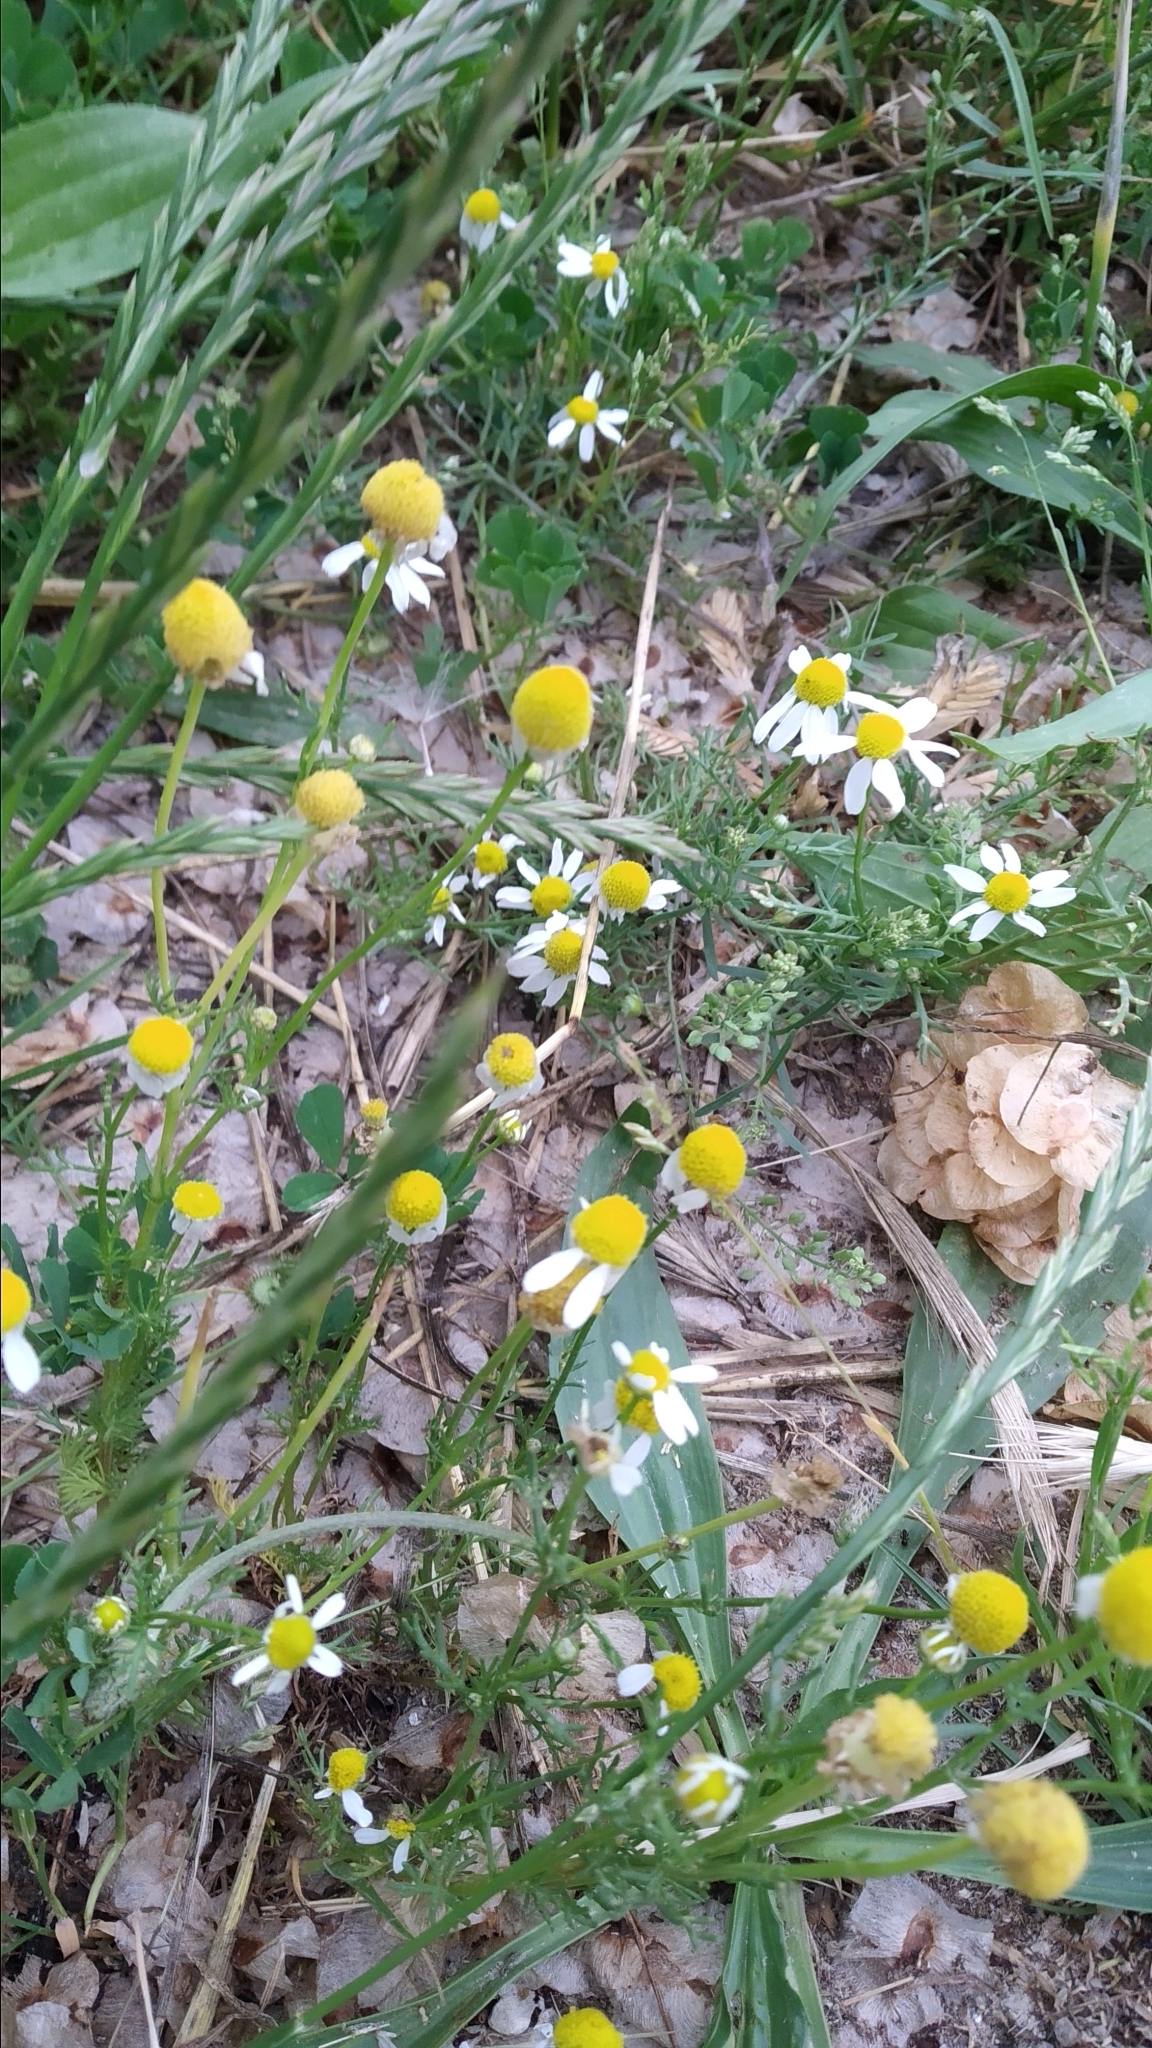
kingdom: Plantae
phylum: Tracheophyta
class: Magnoliopsida
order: Asterales
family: Asteraceae
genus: Matricaria
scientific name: Matricaria chamomilla
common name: Scented mayweed
